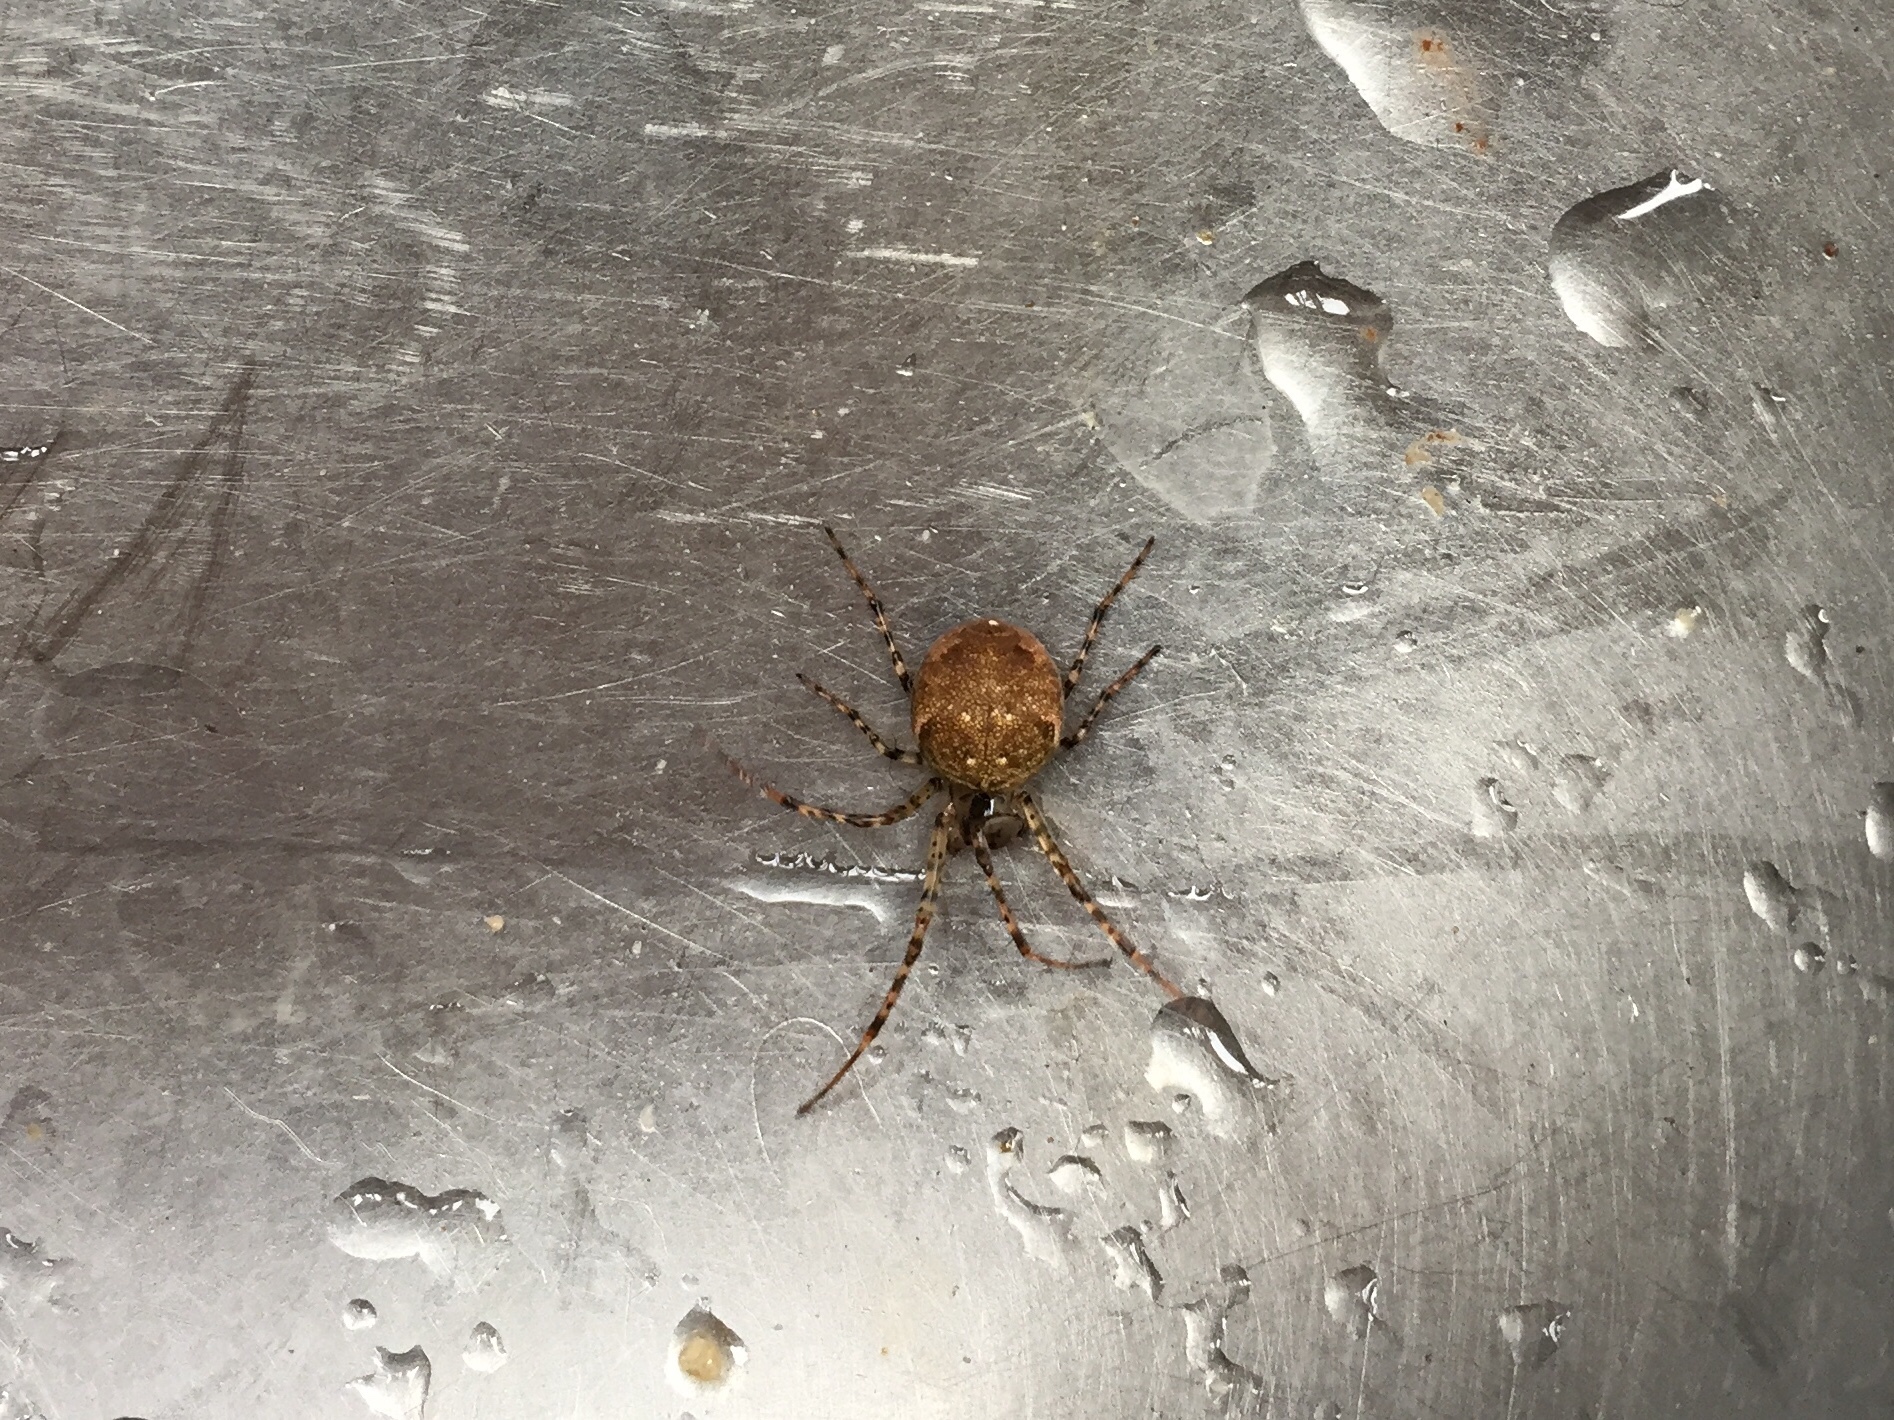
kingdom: Animalia
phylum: Arthropoda
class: Arachnida
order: Araneae
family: Tetragnathidae
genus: Metellina
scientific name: Metellina merianae
